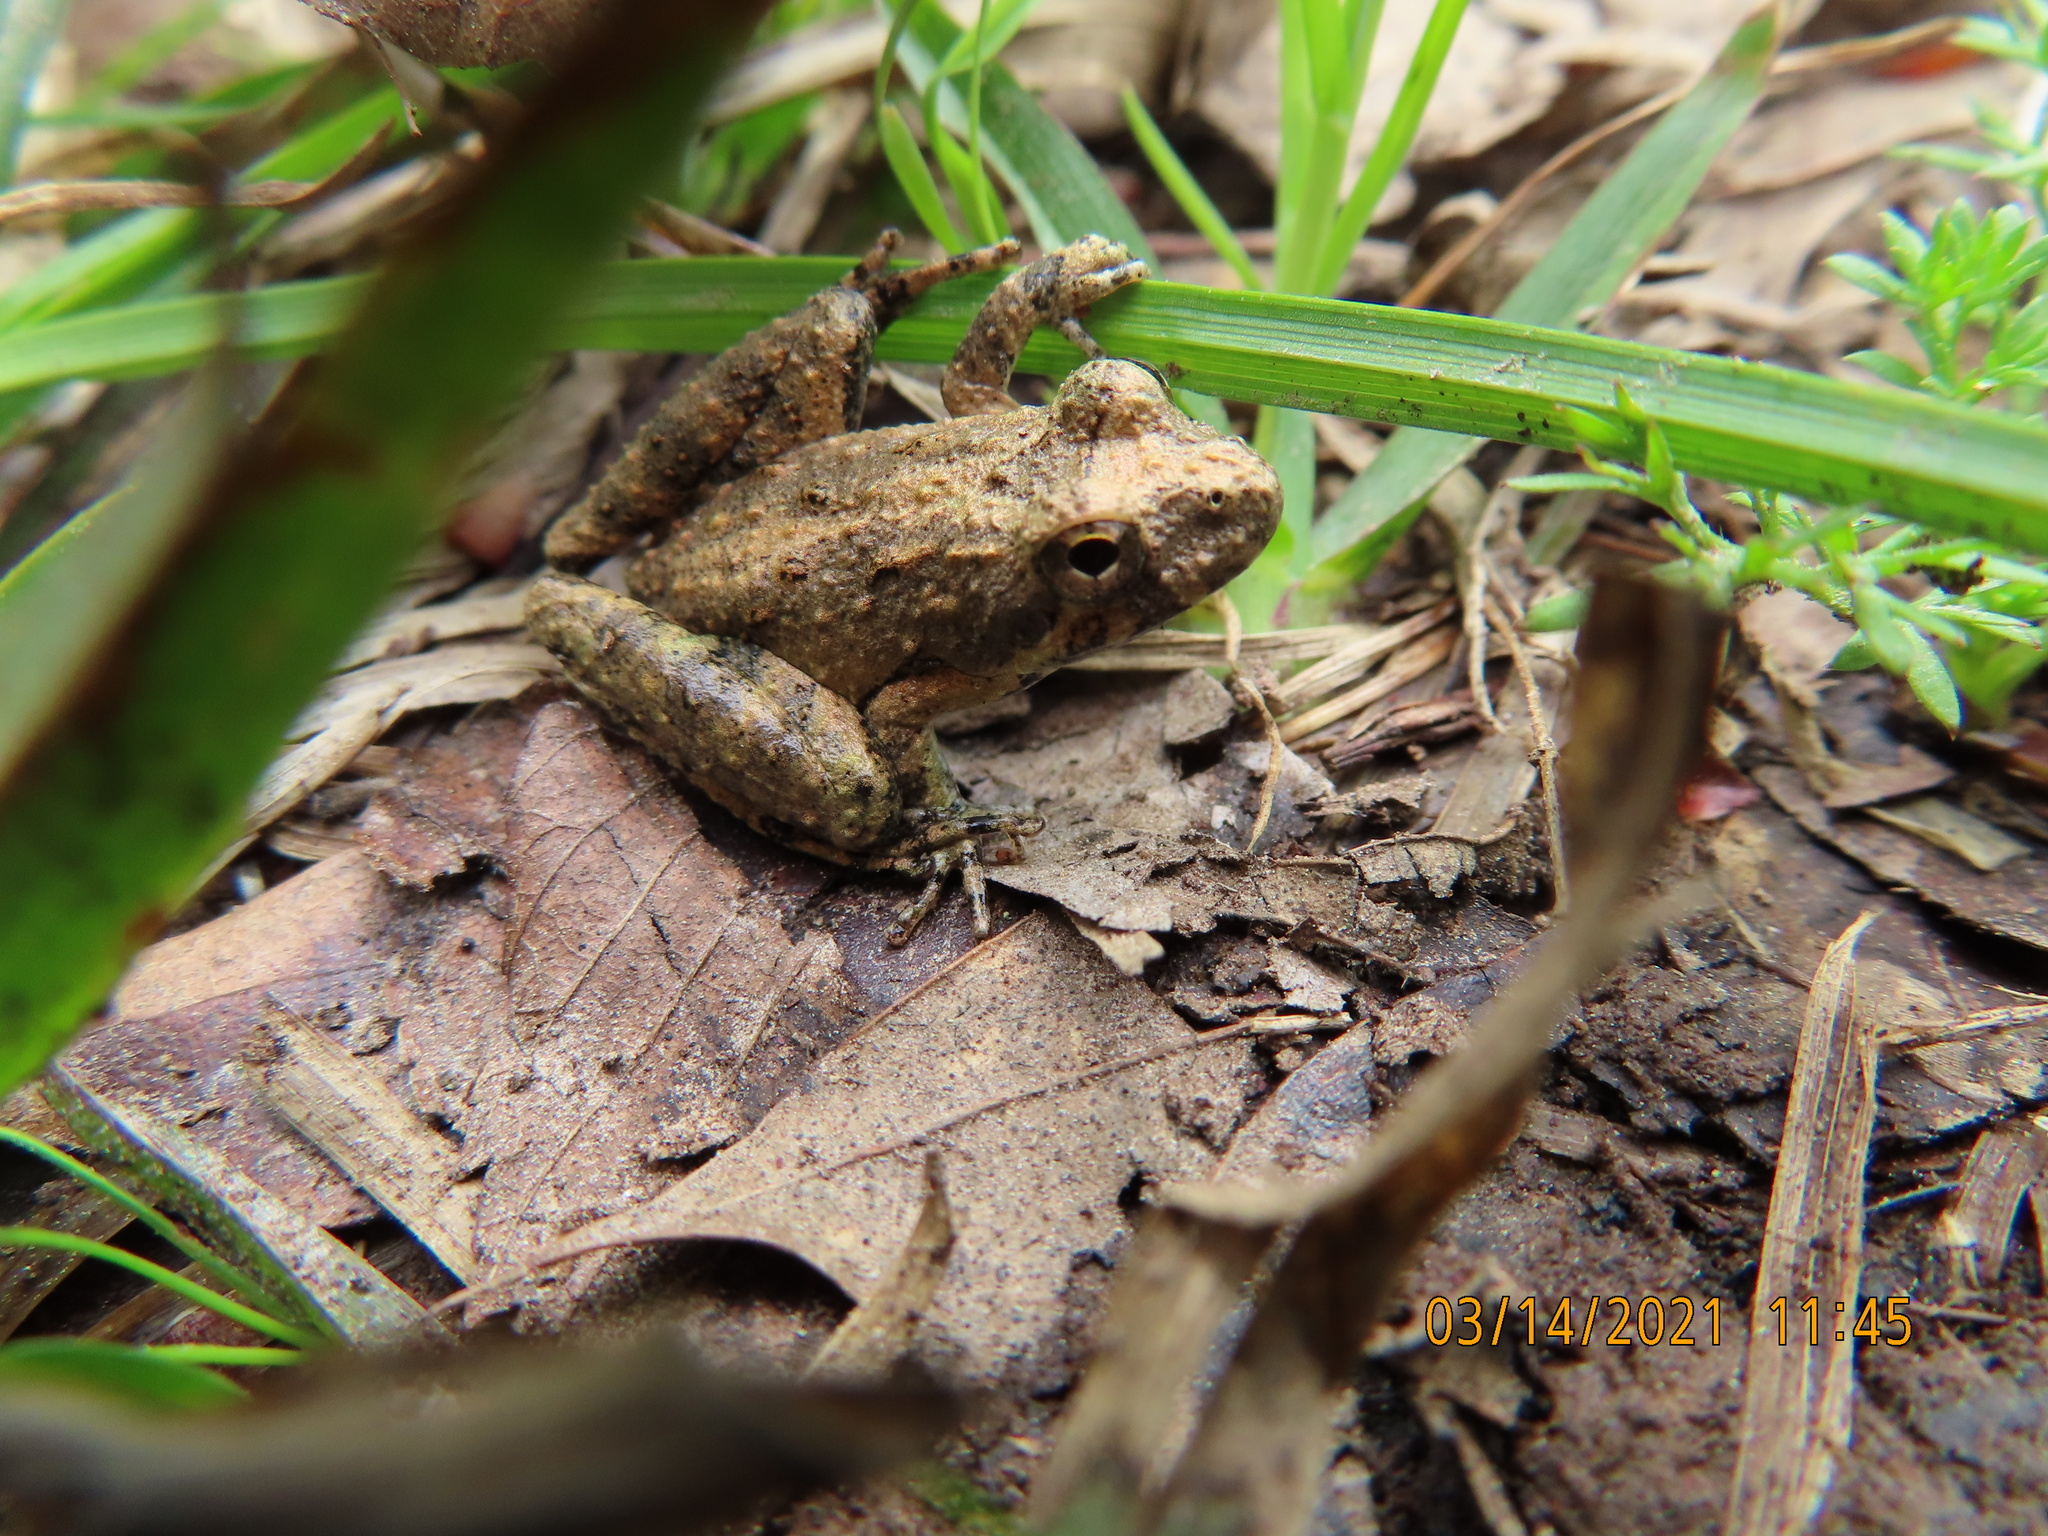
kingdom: Animalia
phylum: Chordata
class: Amphibia
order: Anura
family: Hylidae
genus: Acris
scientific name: Acris blanchardi
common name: Blanchard's cricket frog
